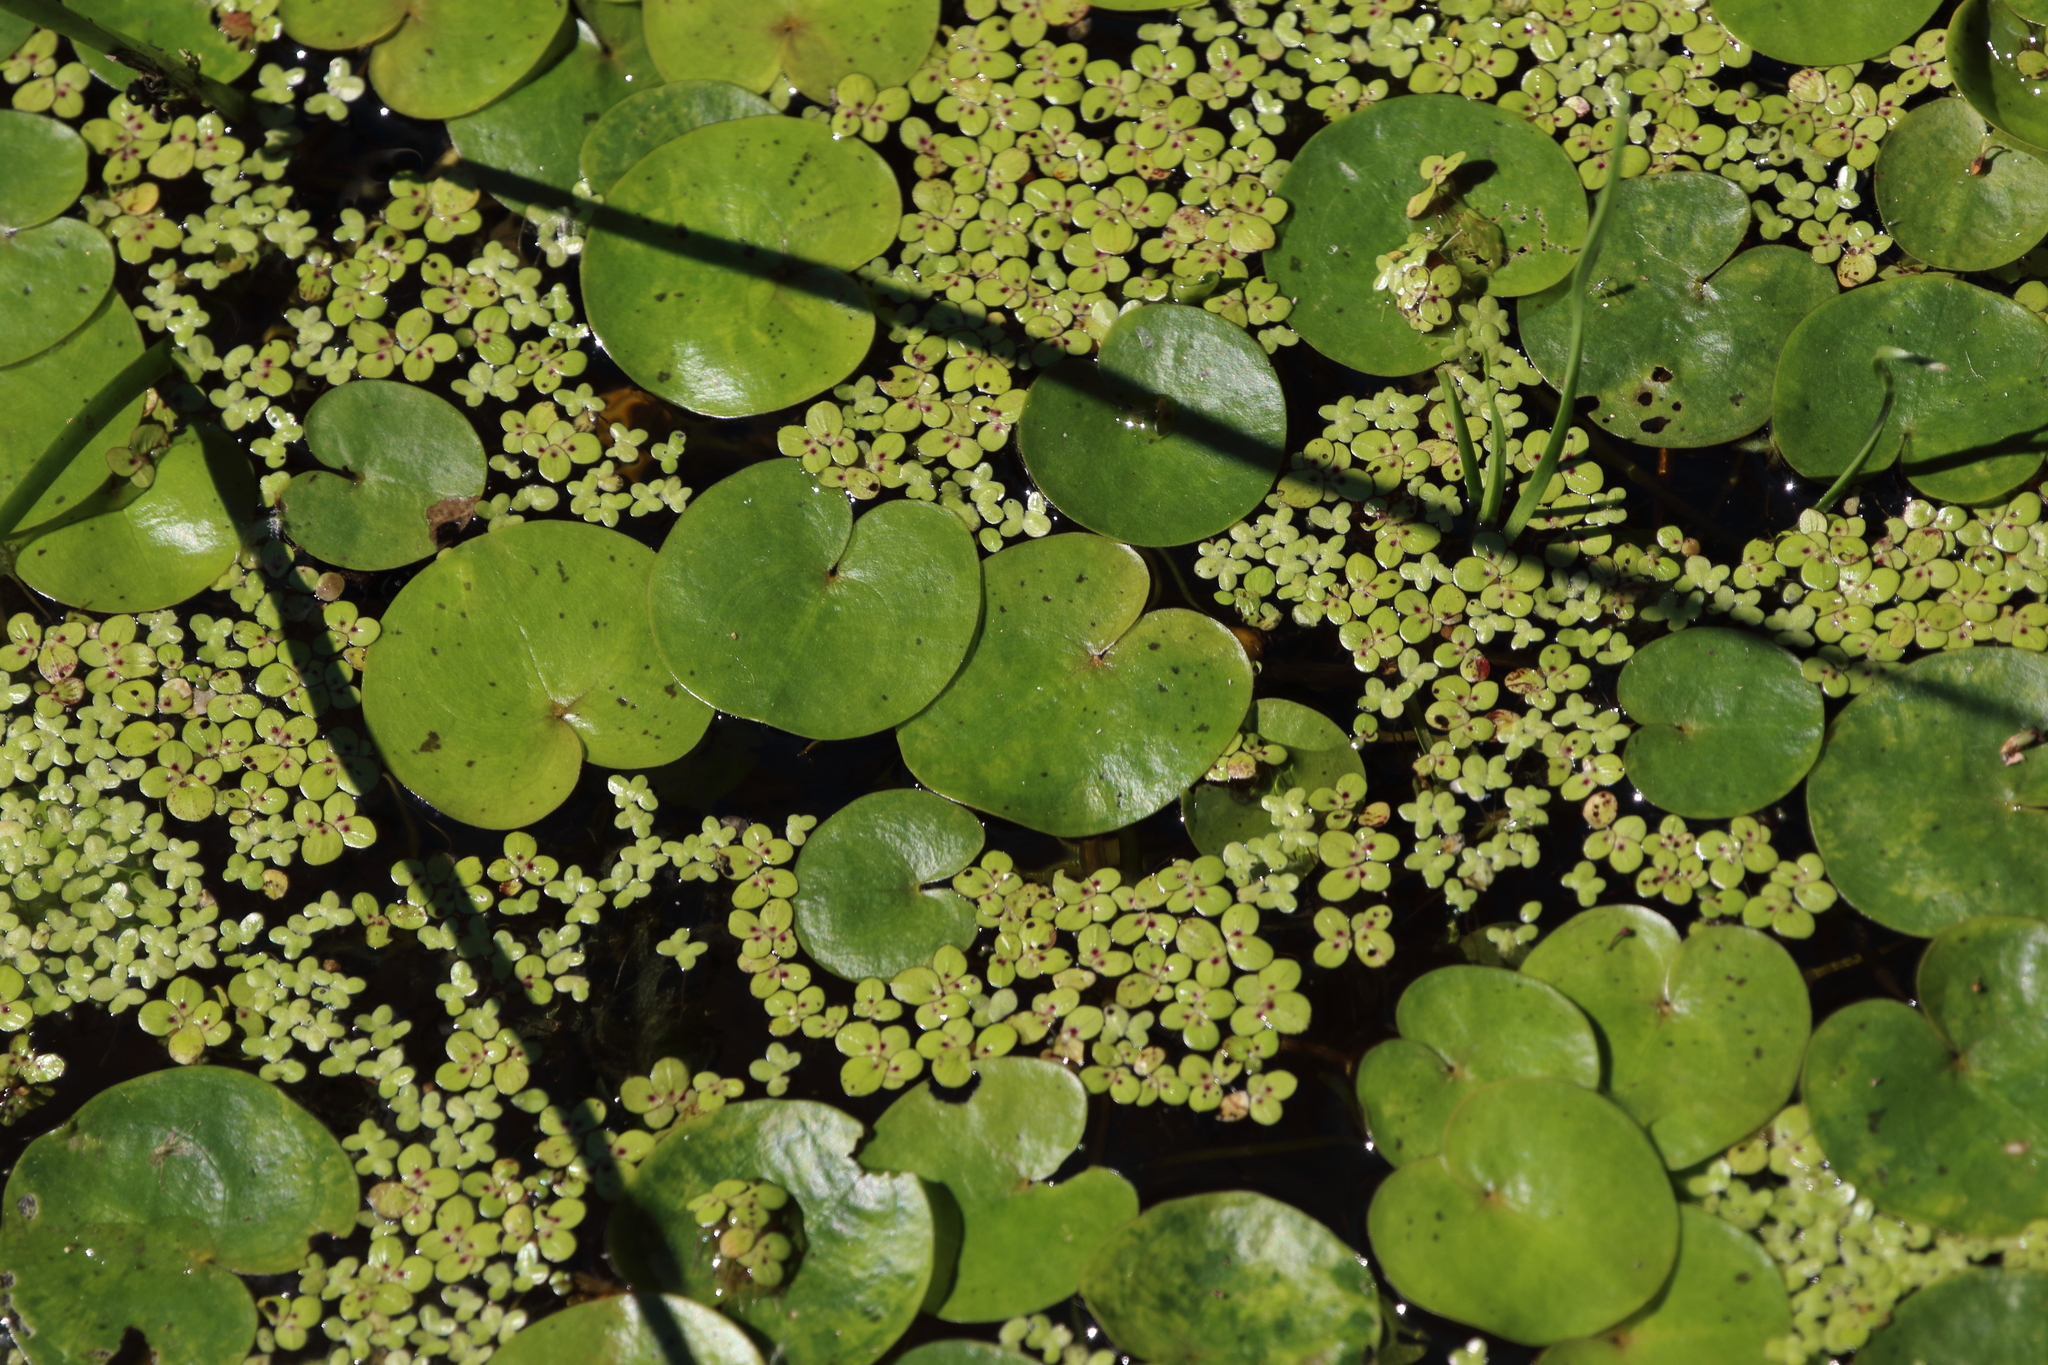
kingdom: Plantae
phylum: Tracheophyta
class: Liliopsida
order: Alismatales
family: Hydrocharitaceae
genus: Hydrocharis
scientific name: Hydrocharis morsus-ranae
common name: Frogbit
